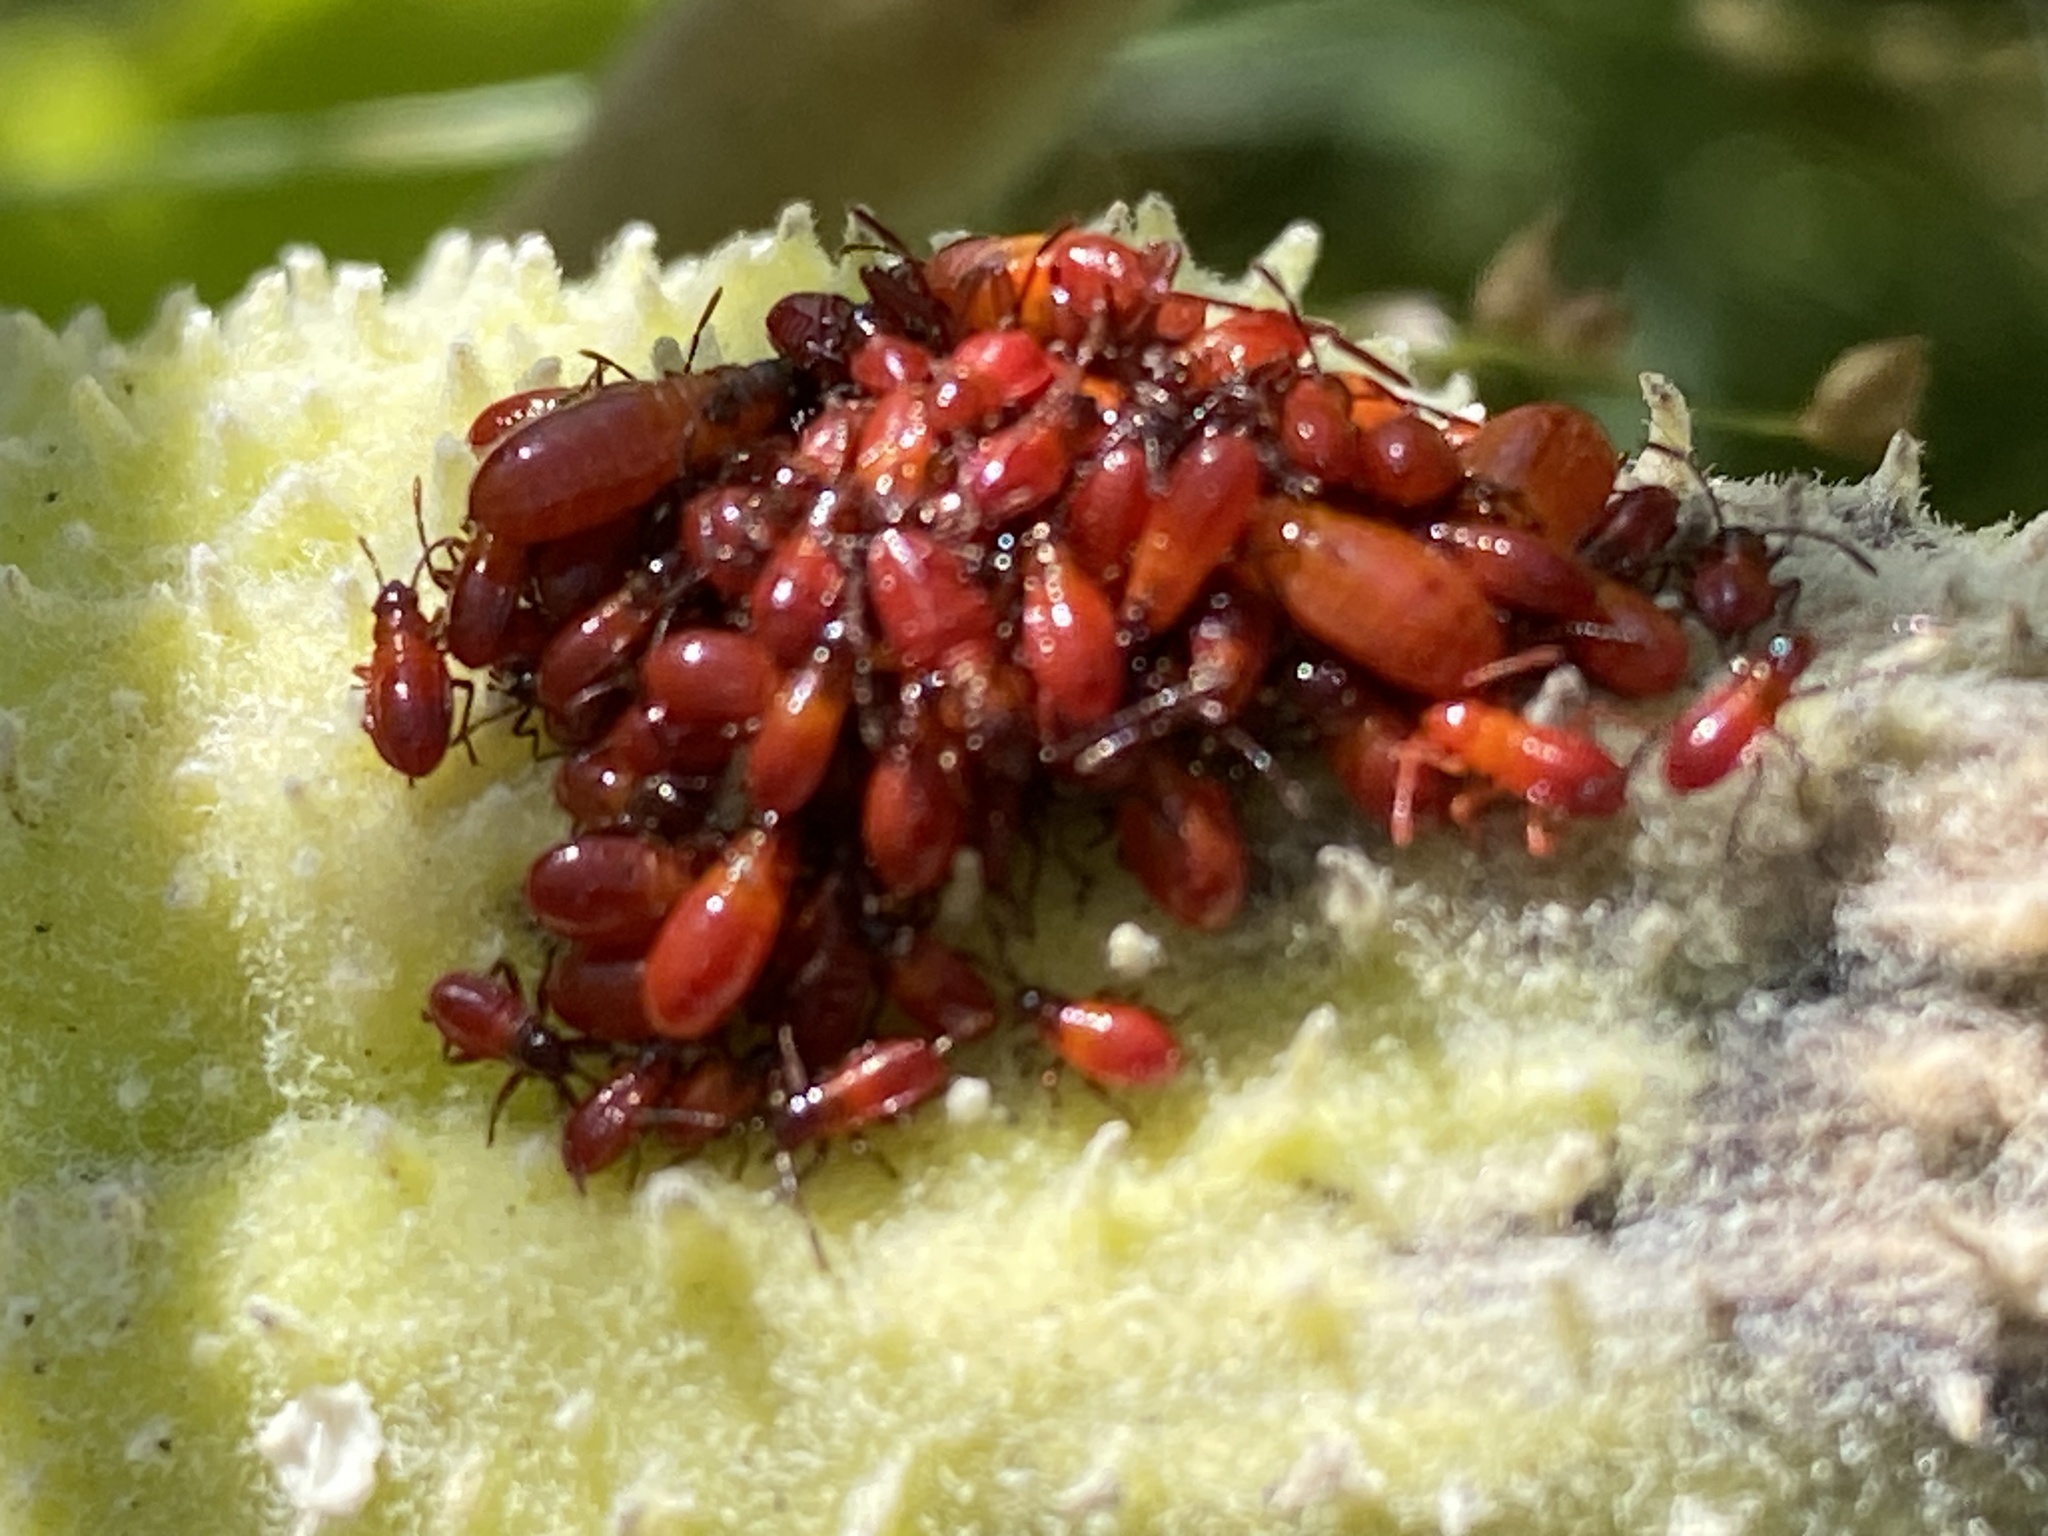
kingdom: Animalia
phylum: Arthropoda
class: Insecta
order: Hemiptera
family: Lygaeidae
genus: Oncopeltus
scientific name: Oncopeltus fasciatus
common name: Large milkweed bug
